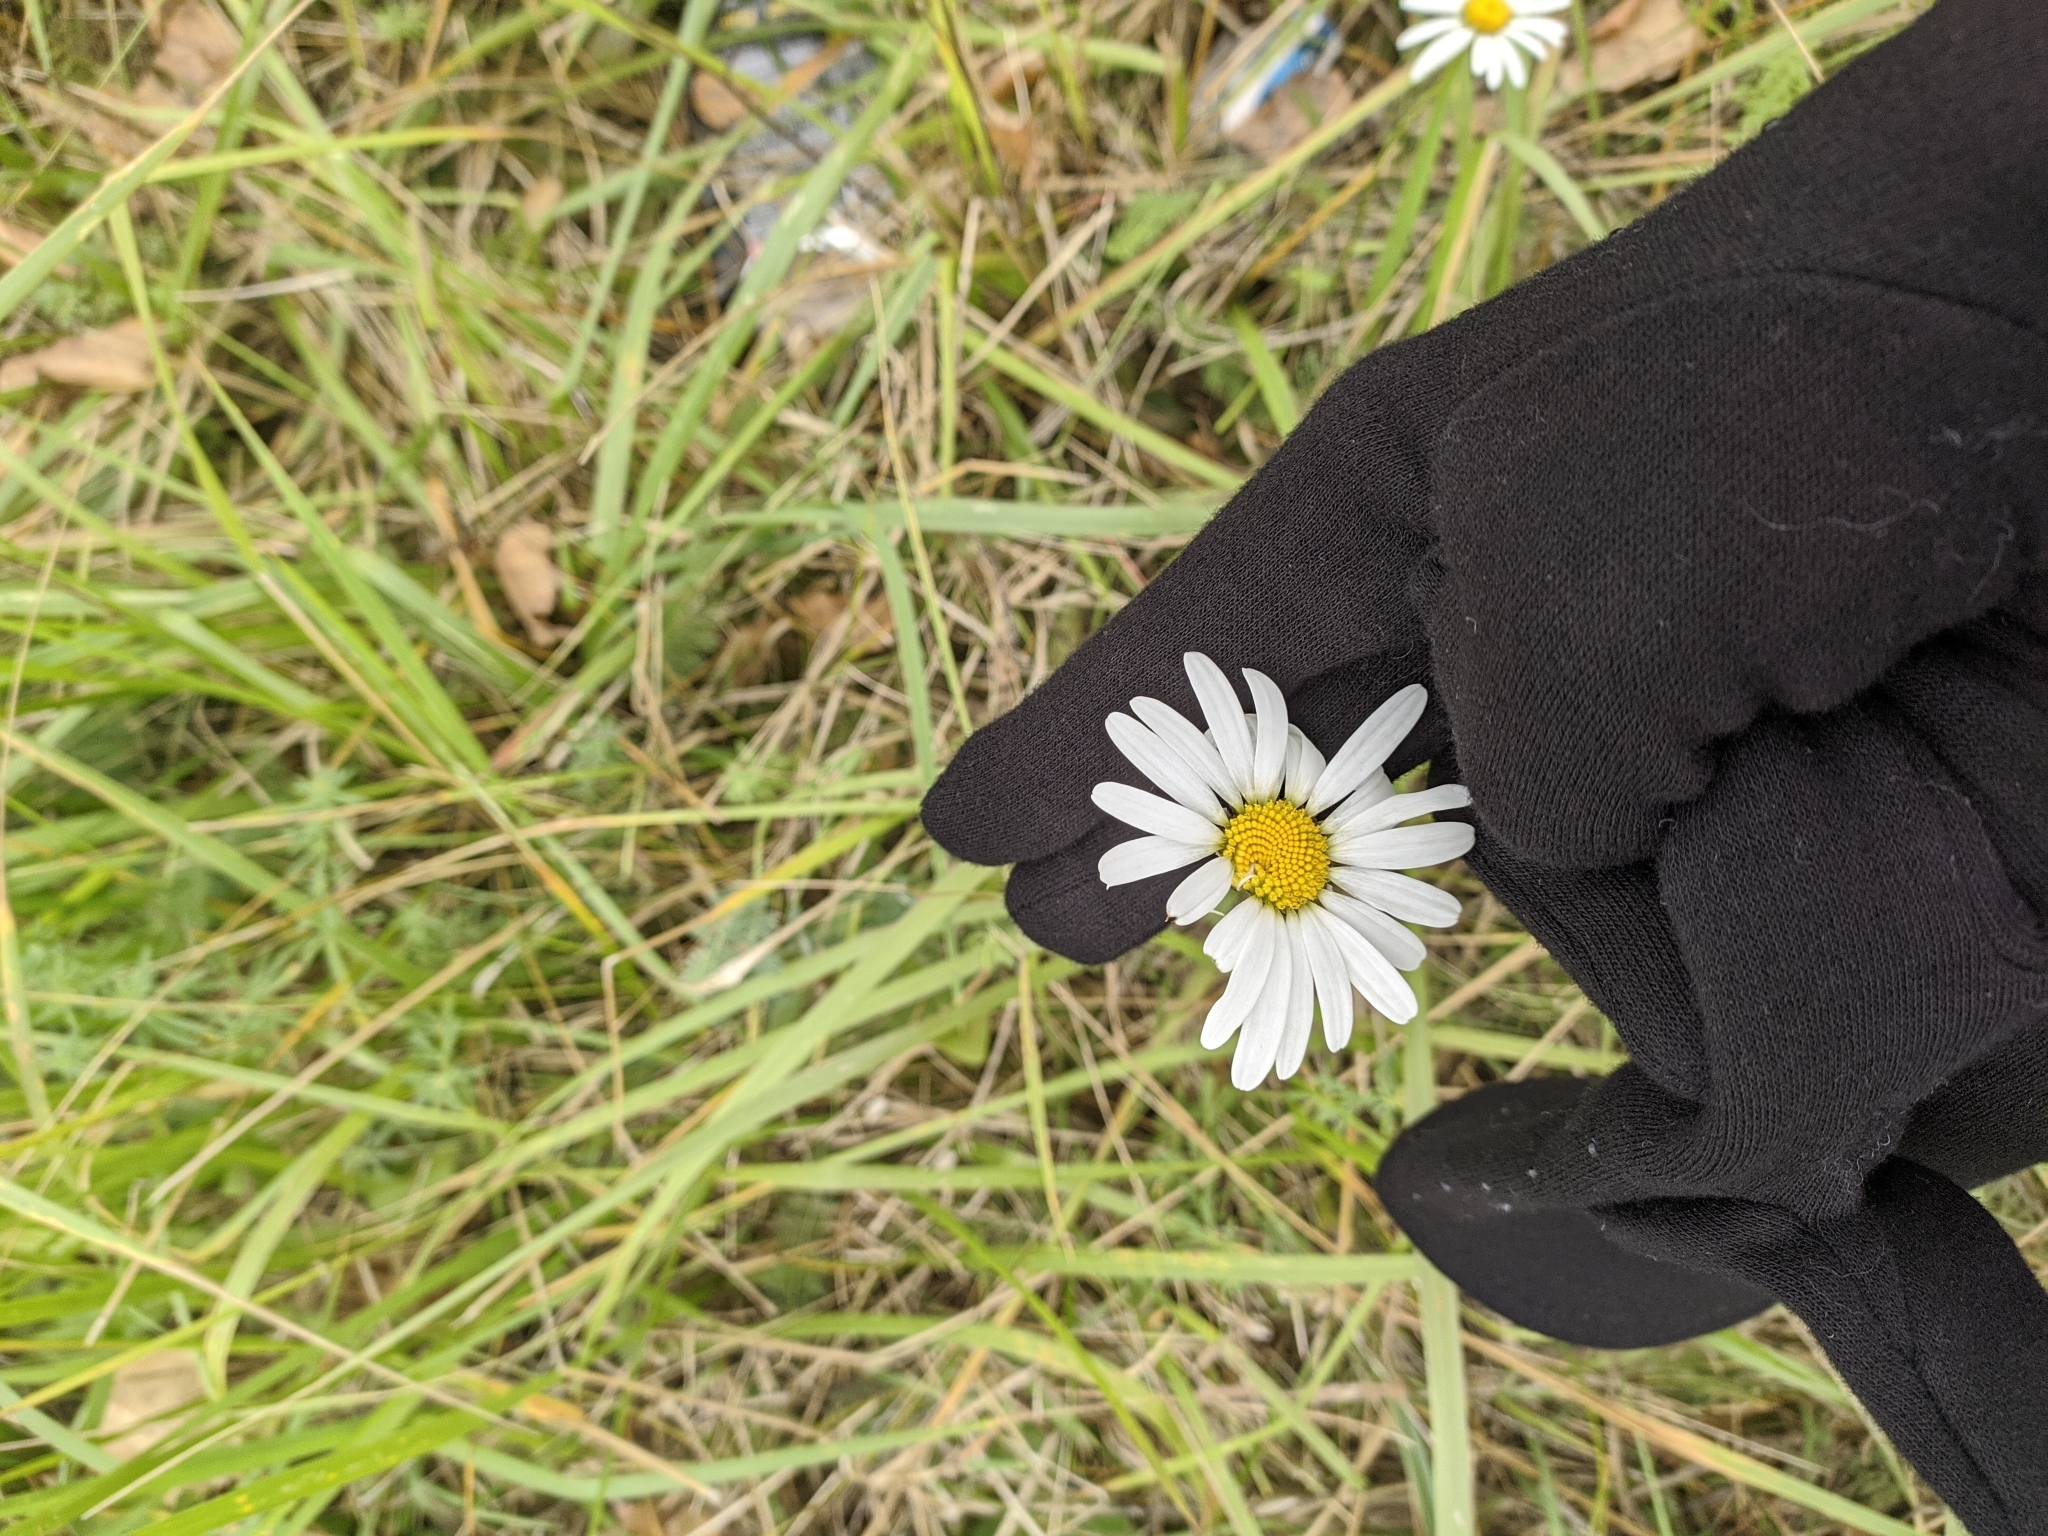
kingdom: Plantae
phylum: Tracheophyta
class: Magnoliopsida
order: Asterales
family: Asteraceae
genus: Leucanthemum
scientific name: Leucanthemum vulgare
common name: Oxeye daisy
